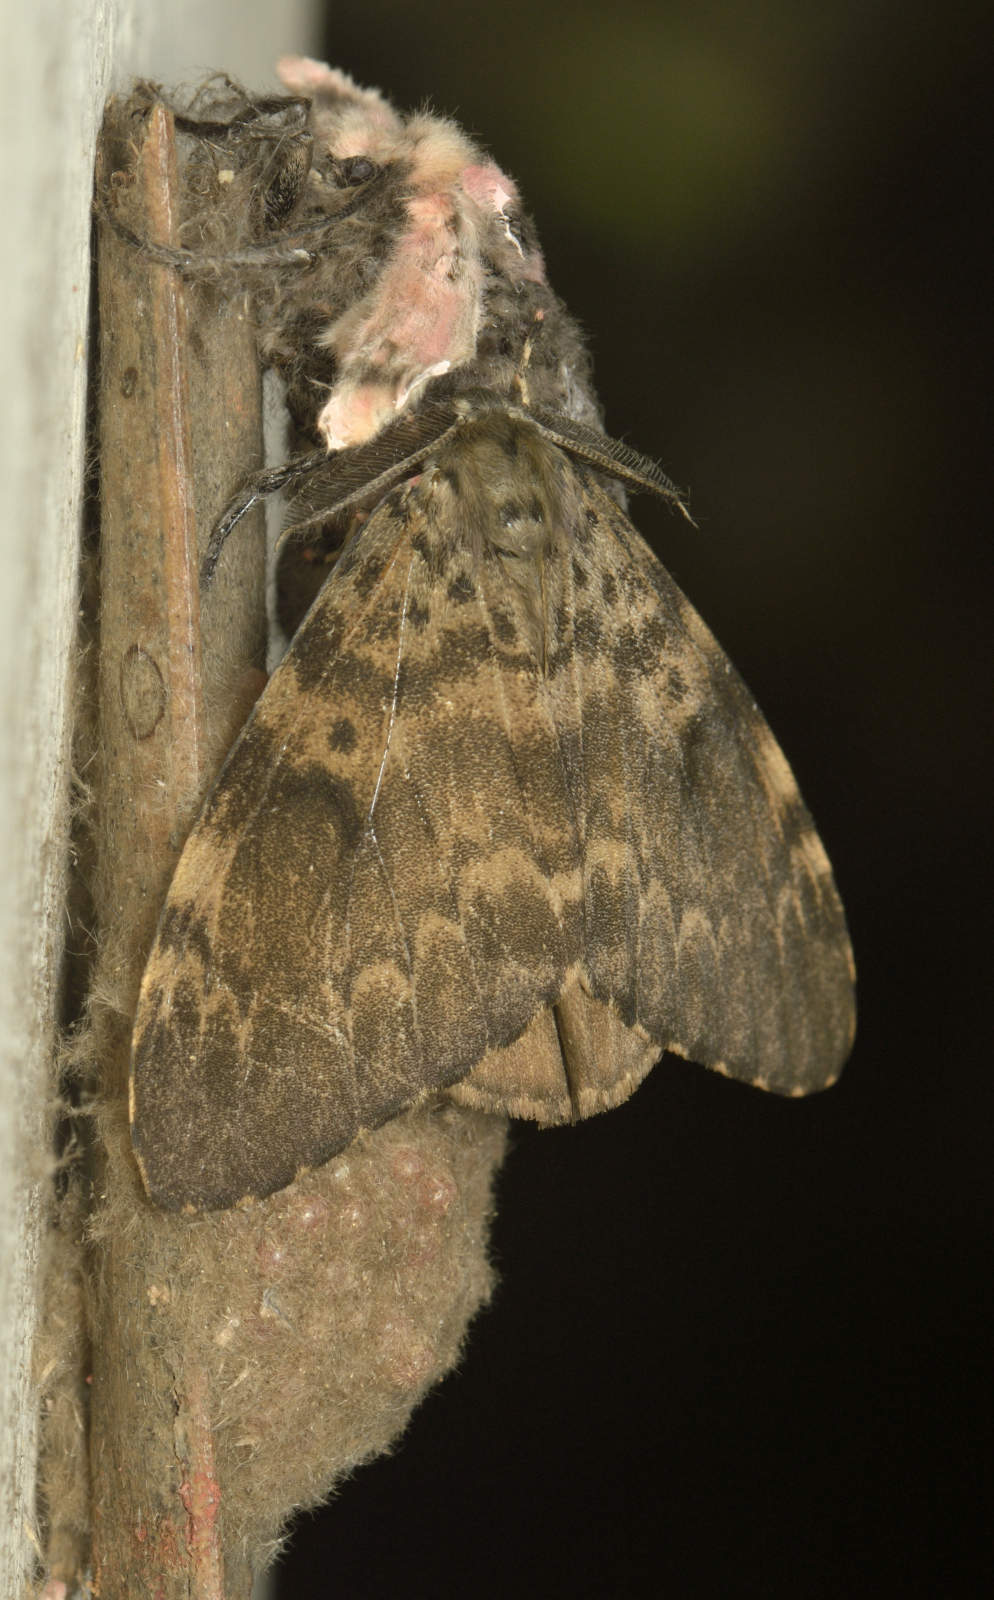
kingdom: Animalia
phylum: Arthropoda
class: Insecta
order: Lepidoptera
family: Erebidae
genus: Lymantria
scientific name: Lymantria ampla
